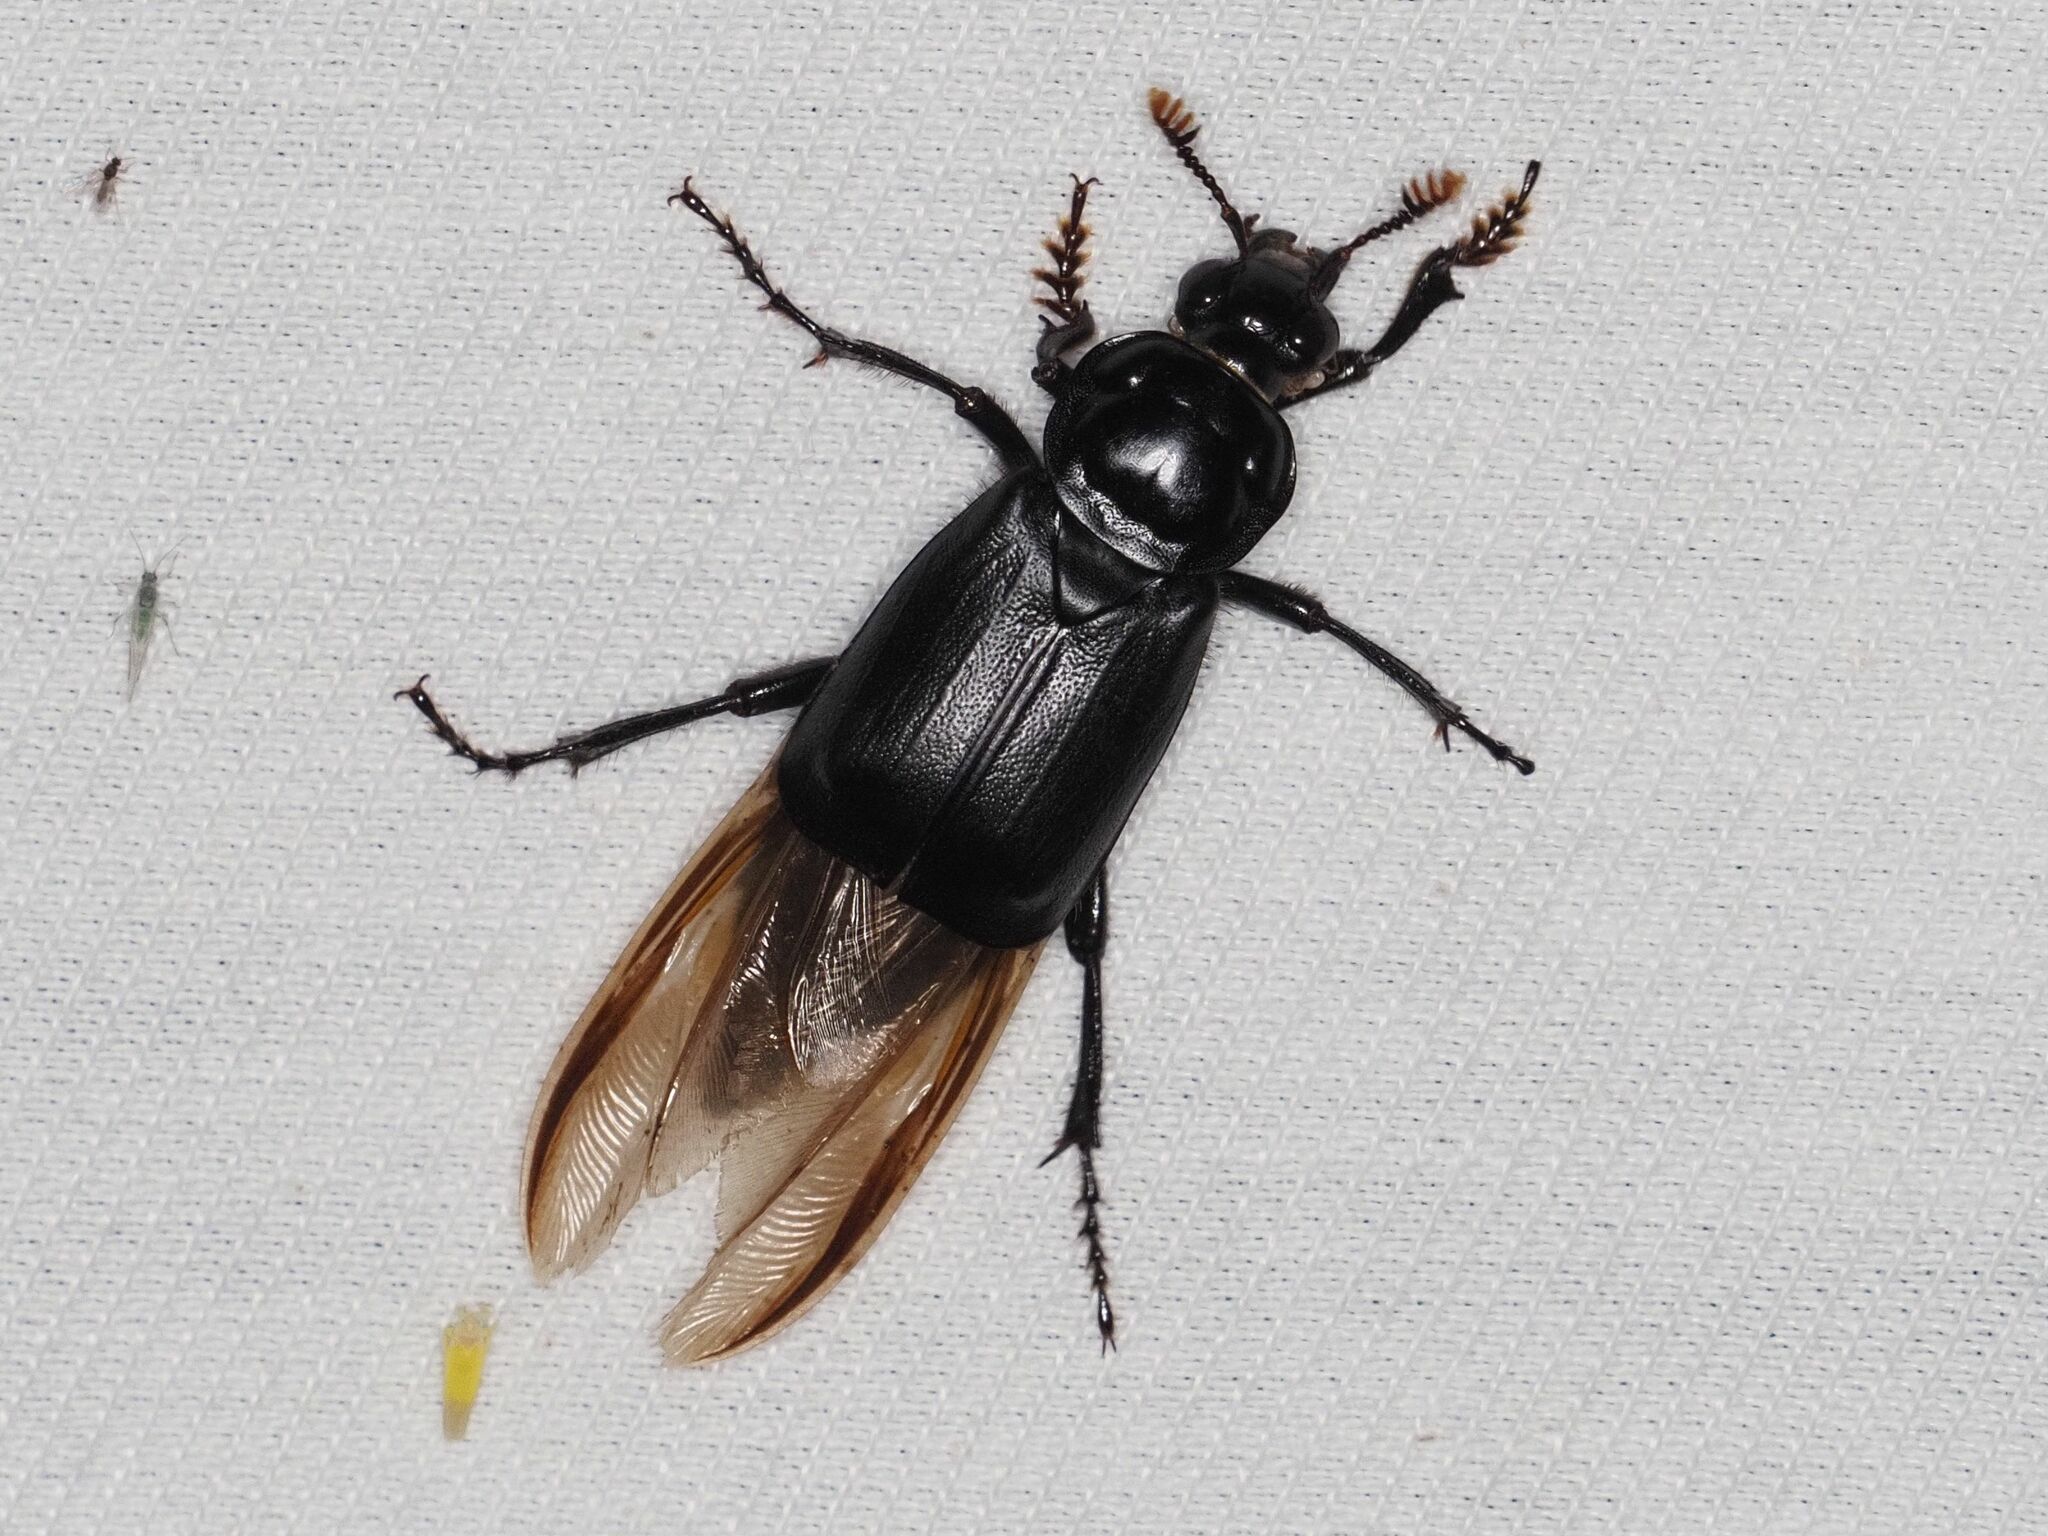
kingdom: Animalia
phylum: Arthropoda
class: Insecta
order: Coleoptera
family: Staphylinidae
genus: Nicrophorus
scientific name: Nicrophorus humator
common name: Black sexton beetle
